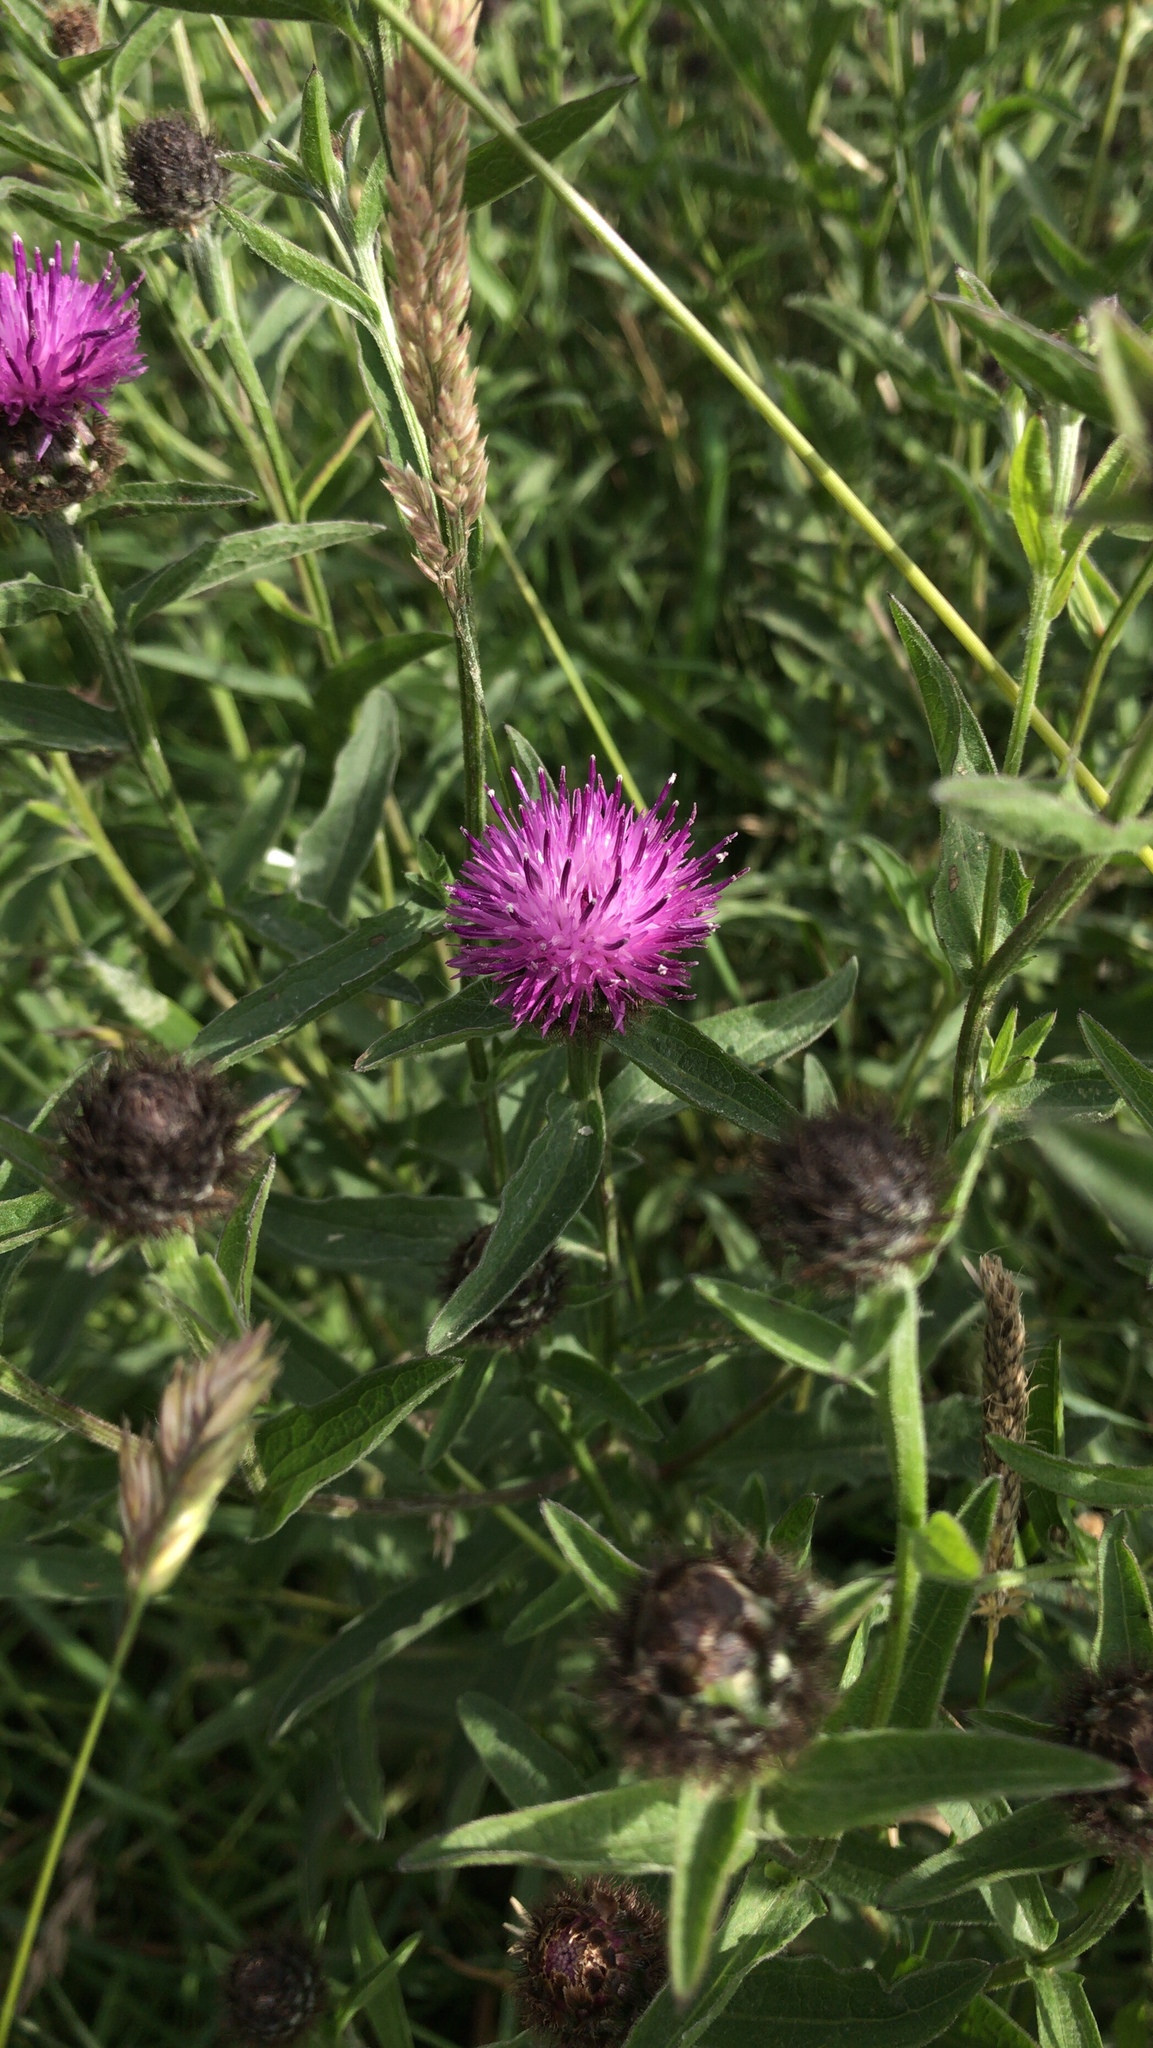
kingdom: Plantae
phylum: Tracheophyta
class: Magnoliopsida
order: Asterales
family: Asteraceae
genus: Centaurea
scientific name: Centaurea nigra
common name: Lesser knapweed
